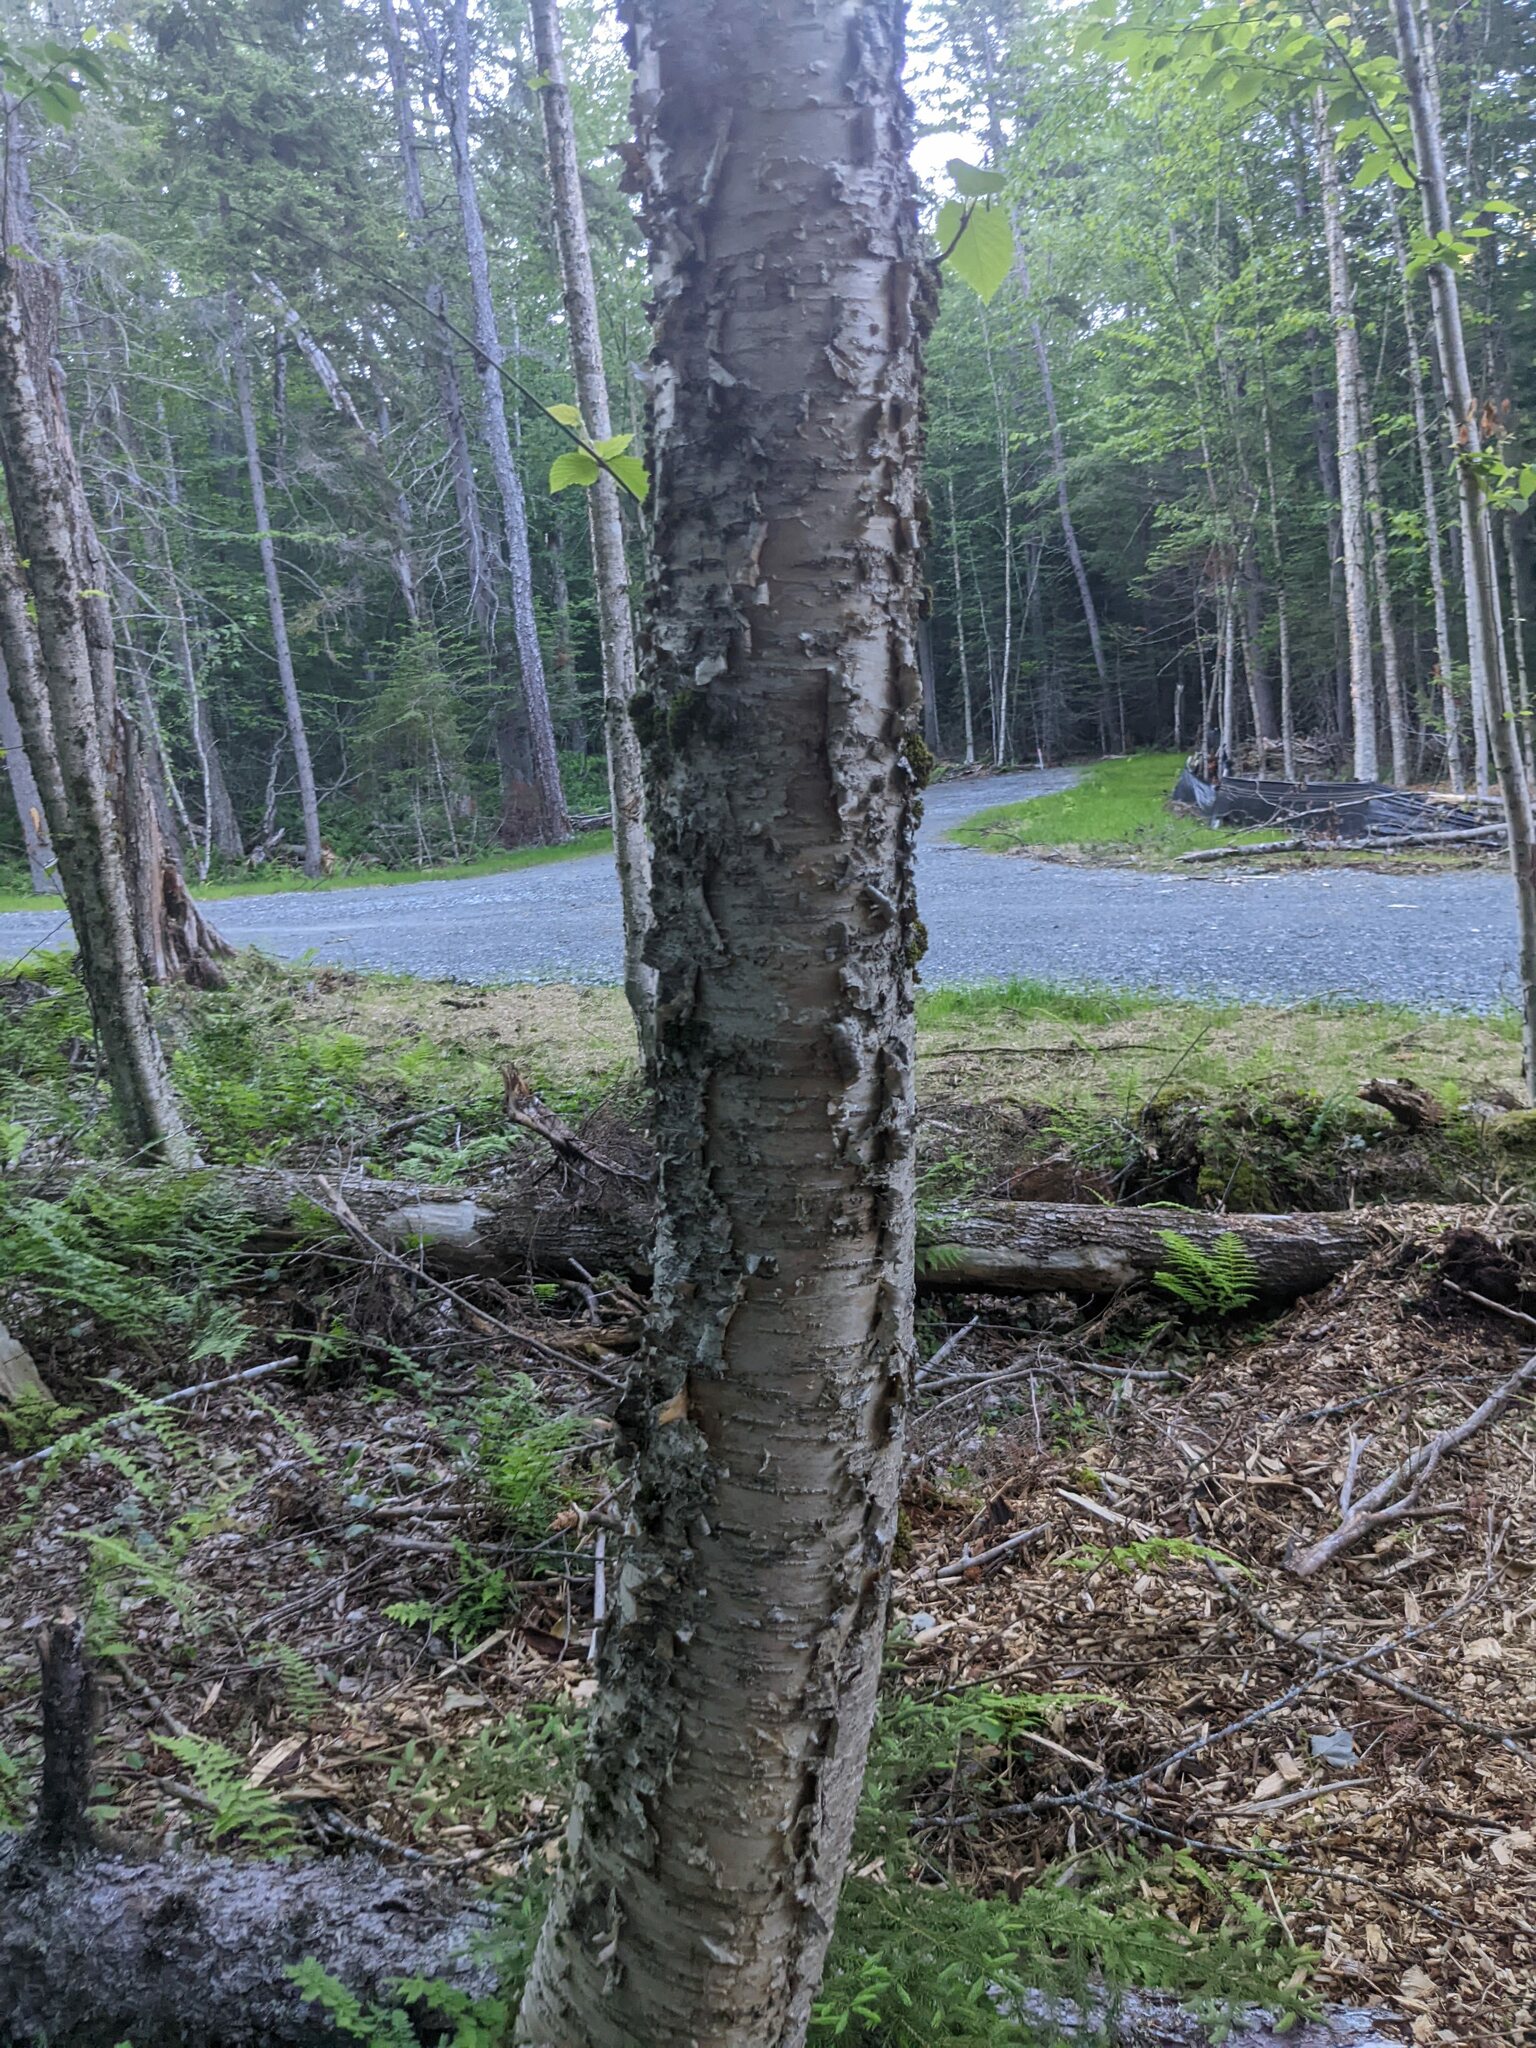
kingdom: Plantae
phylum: Tracheophyta
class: Magnoliopsida
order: Fagales
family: Betulaceae
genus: Betula
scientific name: Betula alleghaniensis
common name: Yellow birch
